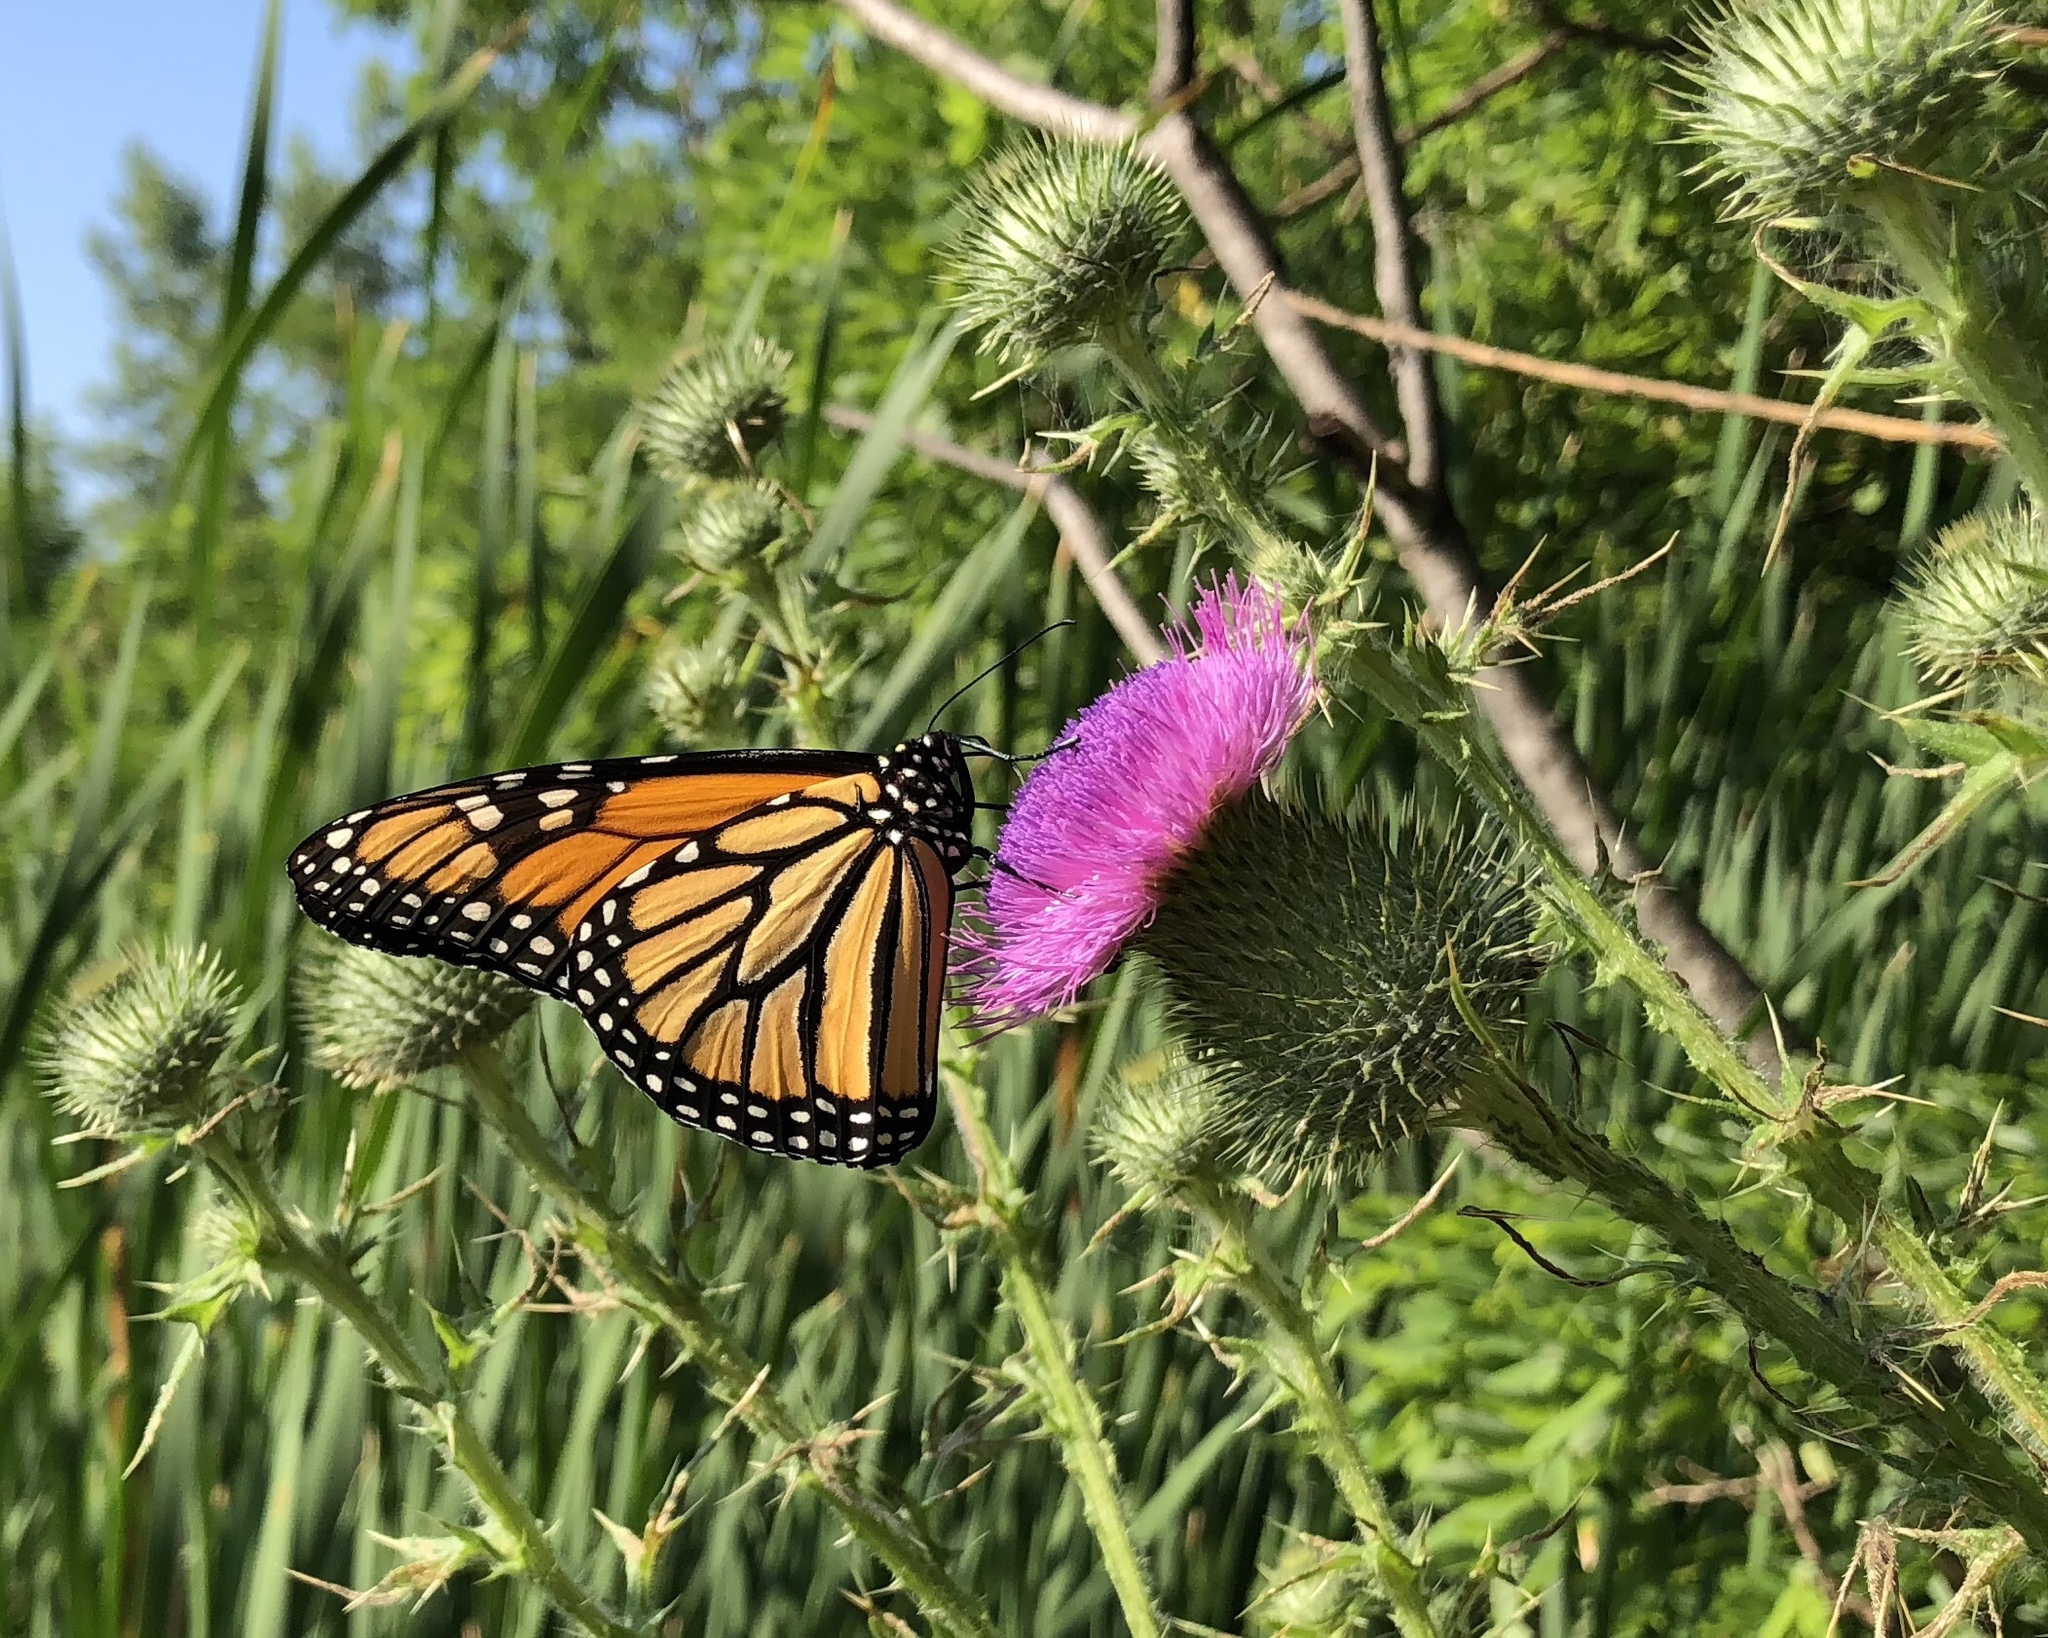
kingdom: Animalia
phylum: Arthropoda
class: Insecta
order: Lepidoptera
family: Nymphalidae
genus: Danaus
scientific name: Danaus plexippus
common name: Monarch
